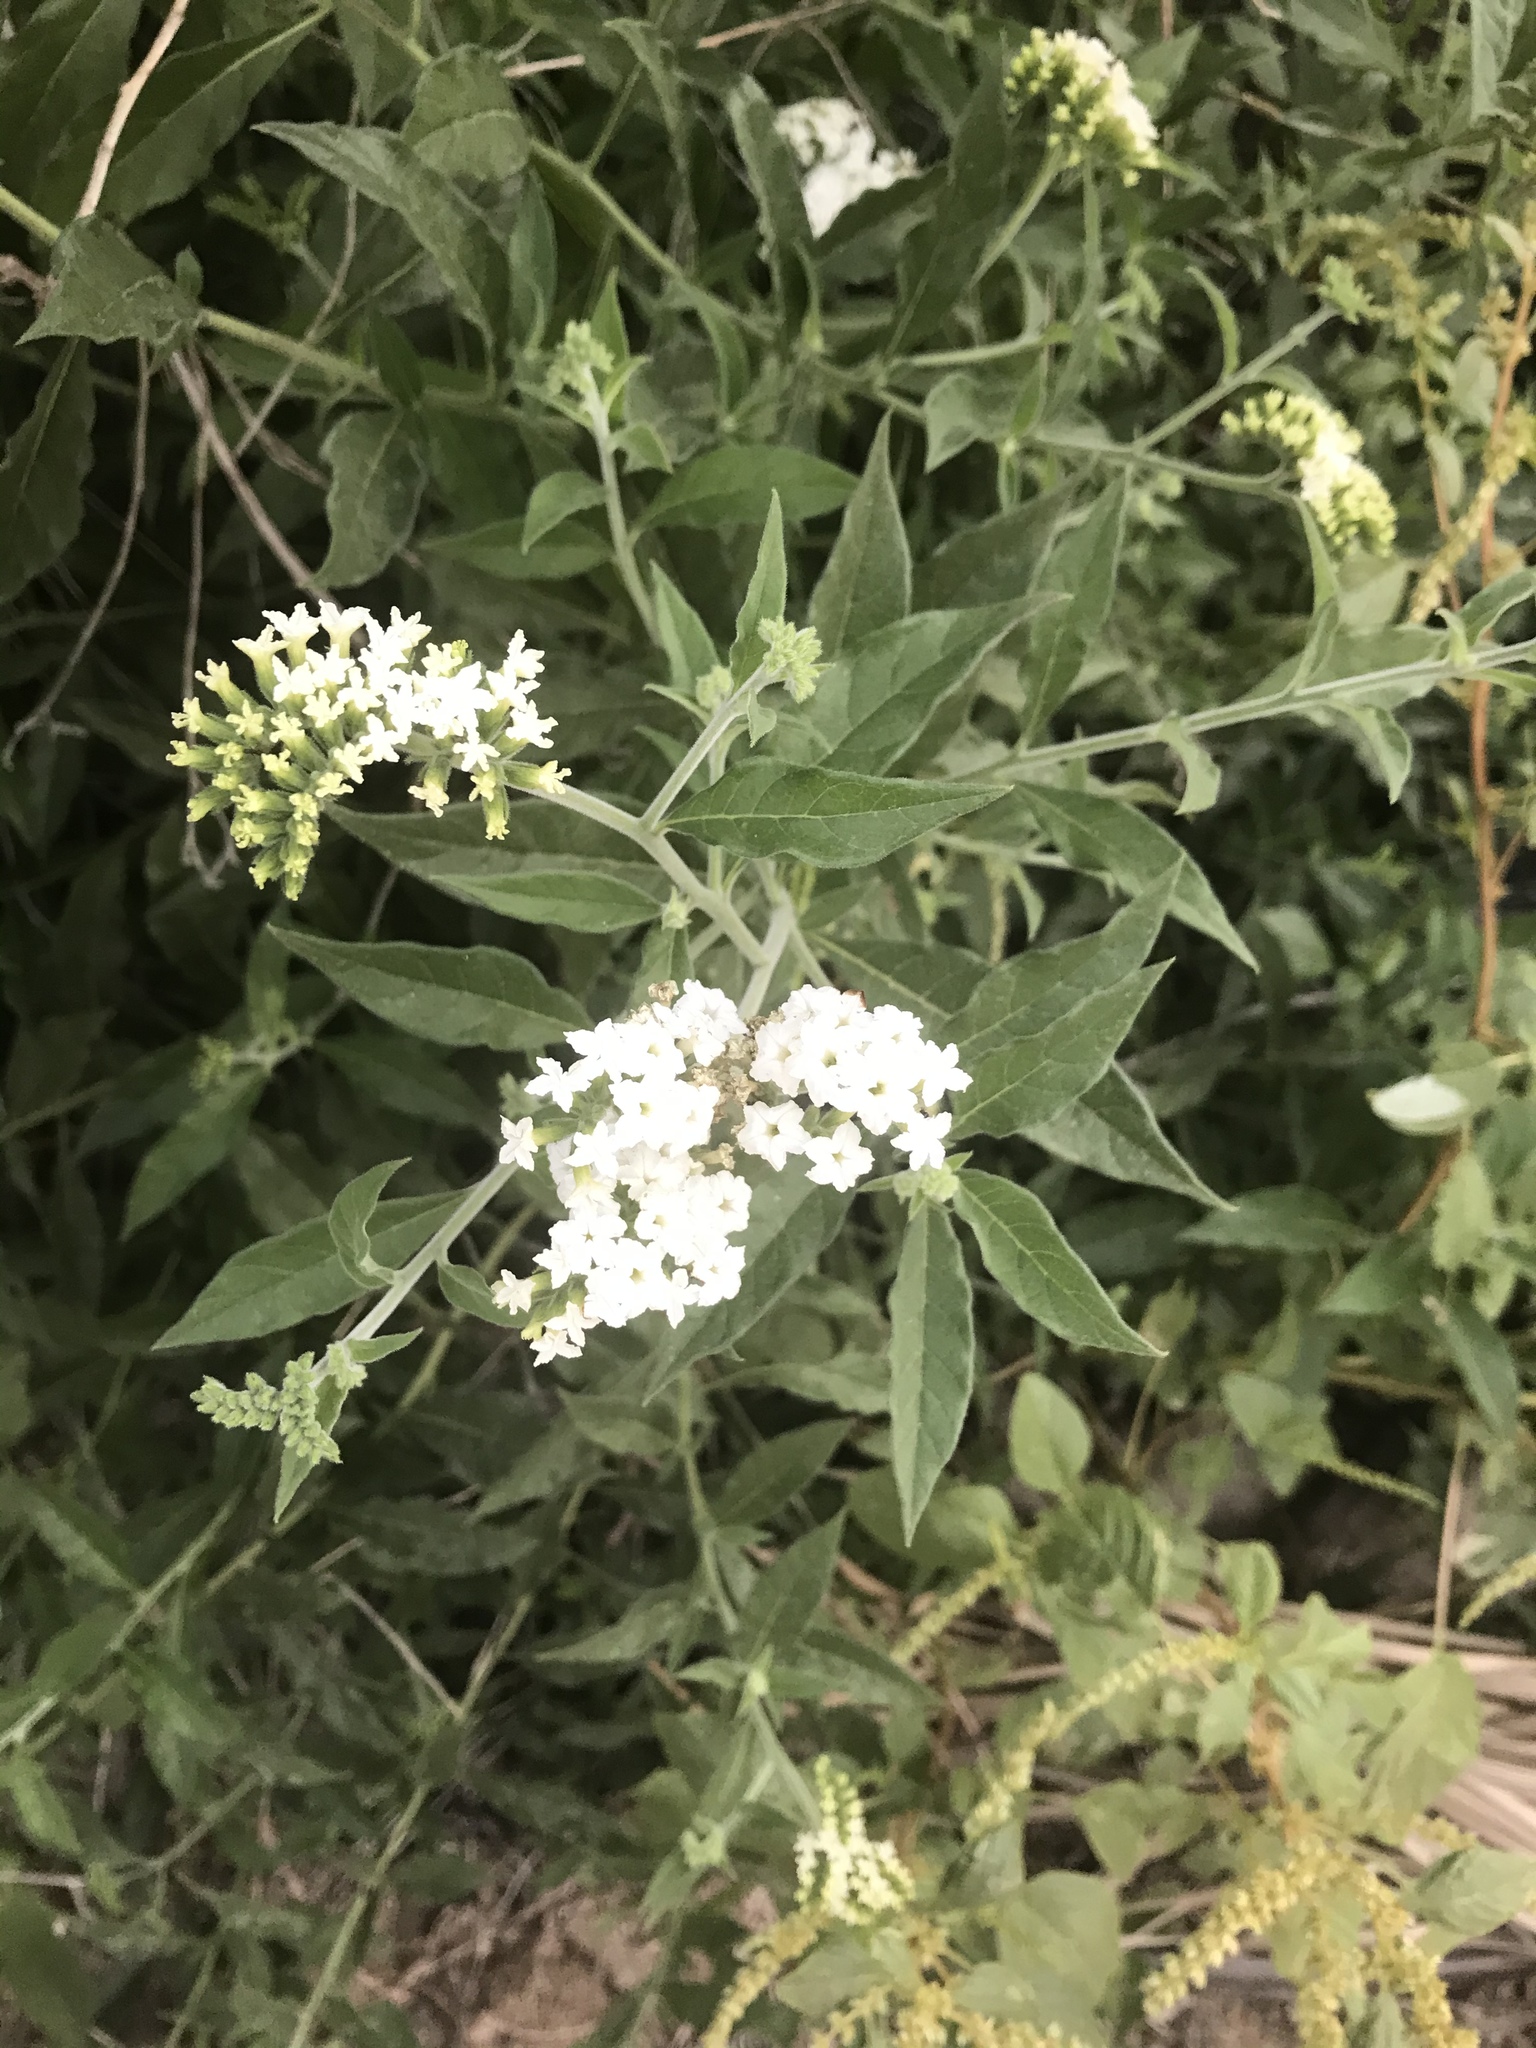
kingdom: Plantae
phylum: Tracheophyta
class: Magnoliopsida
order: Boraginales
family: Heliotropiaceae
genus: Tournefortia
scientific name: Tournefortia mutabilis
